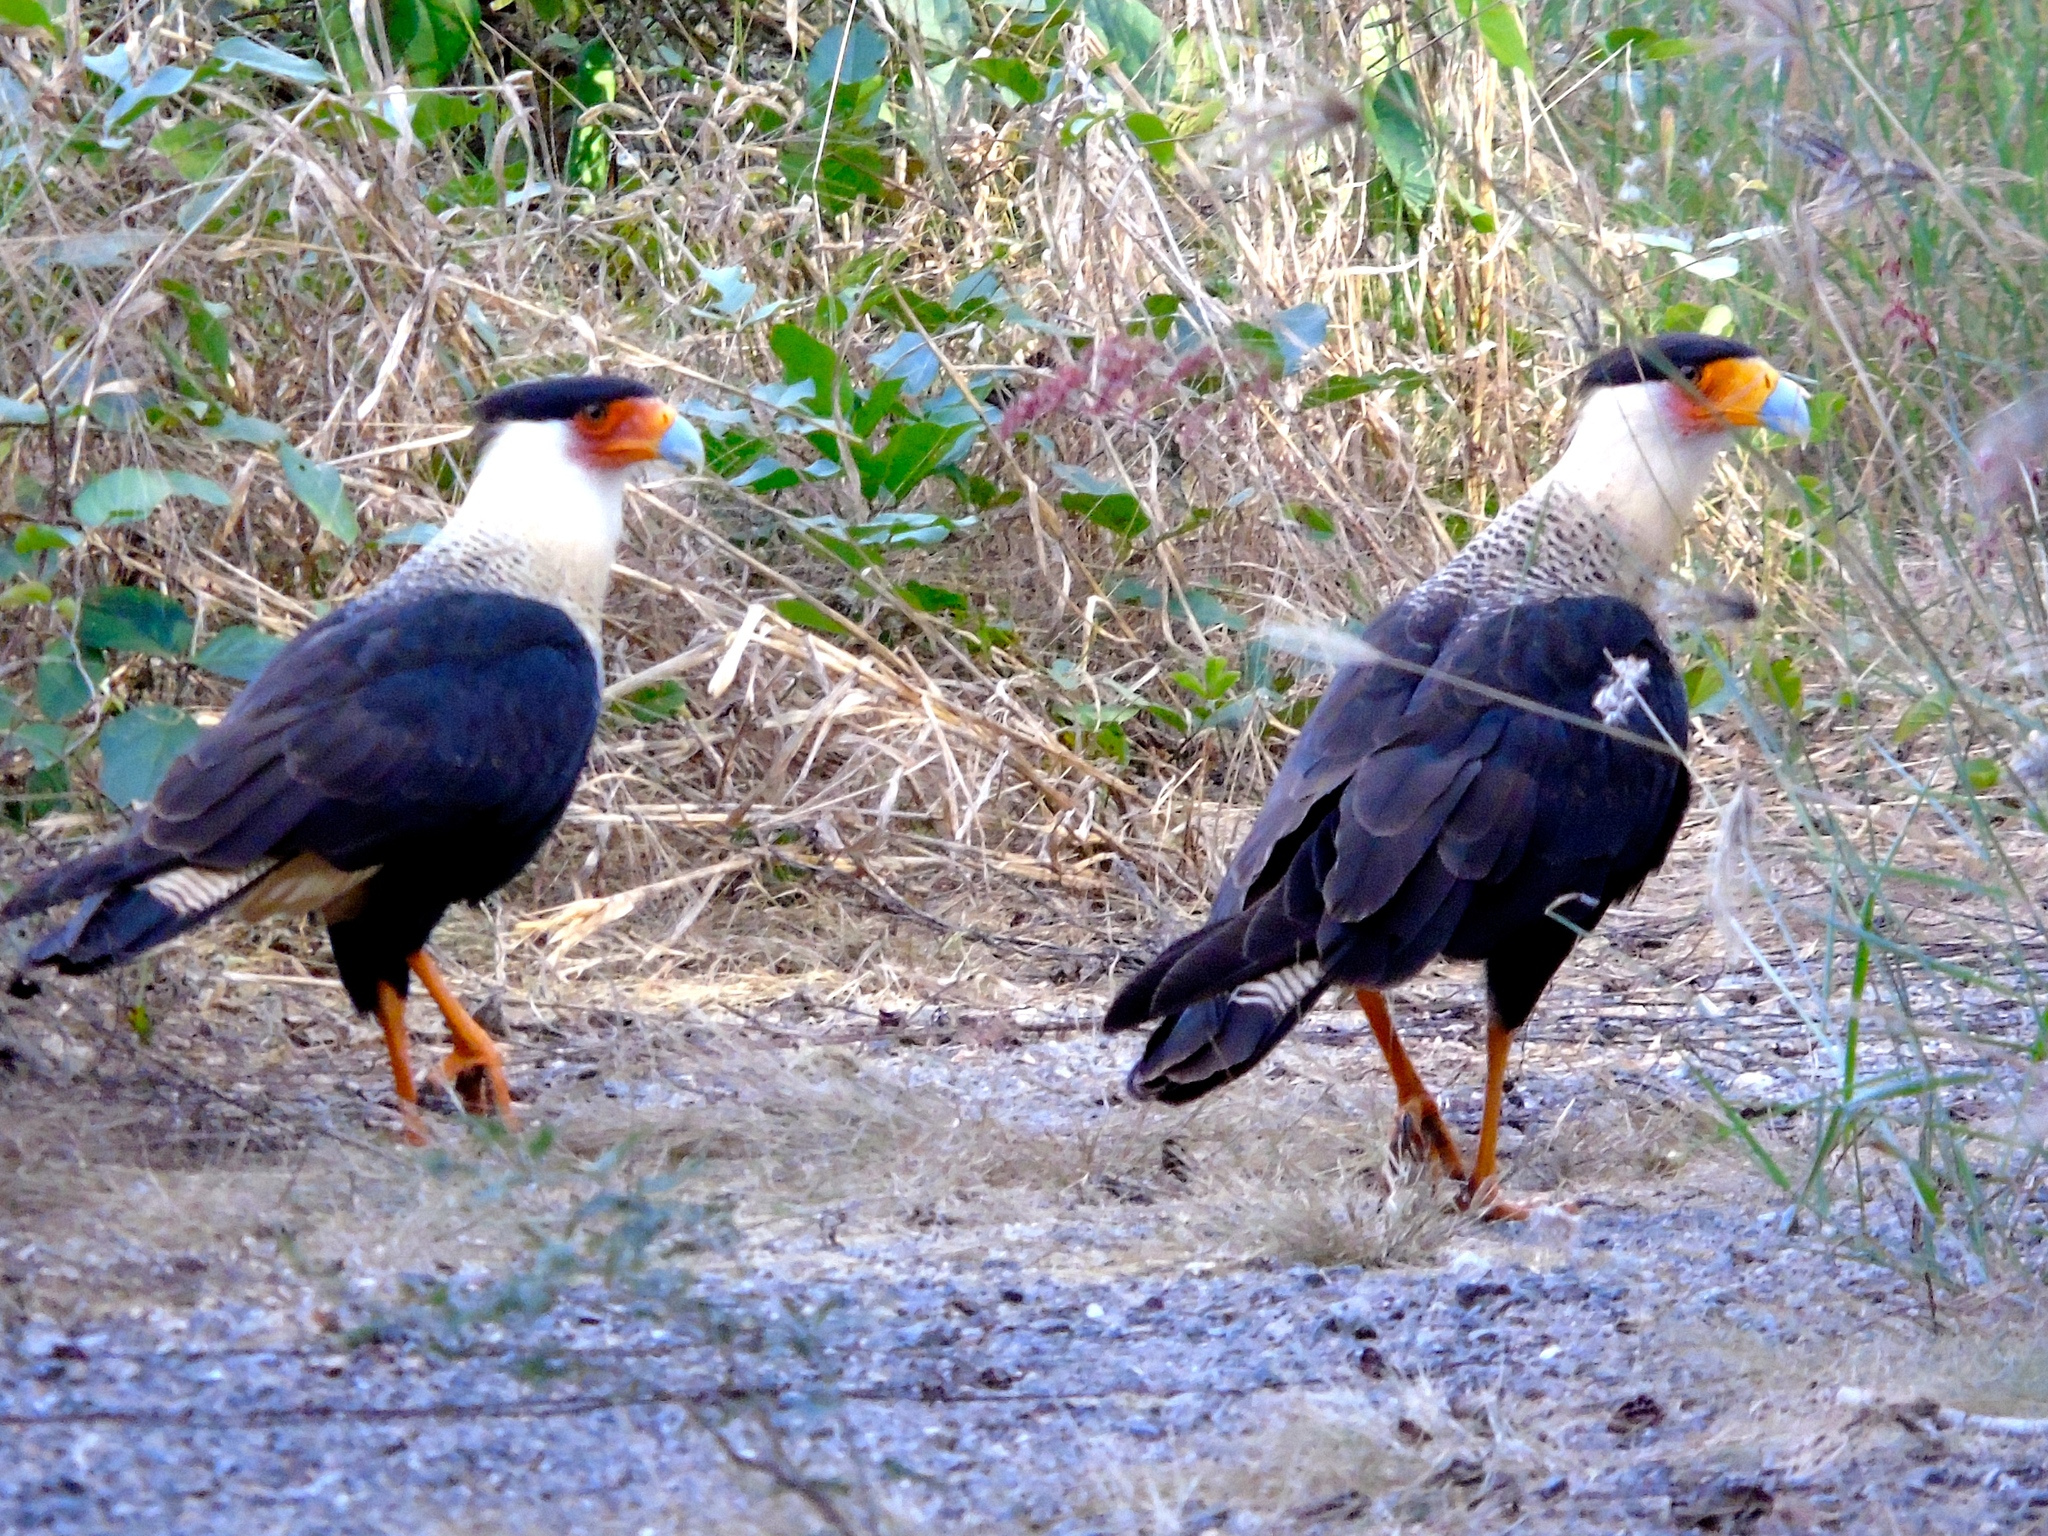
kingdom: Animalia
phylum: Chordata
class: Aves
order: Falconiformes
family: Falconidae
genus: Caracara
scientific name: Caracara plancus
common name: Southern caracara
